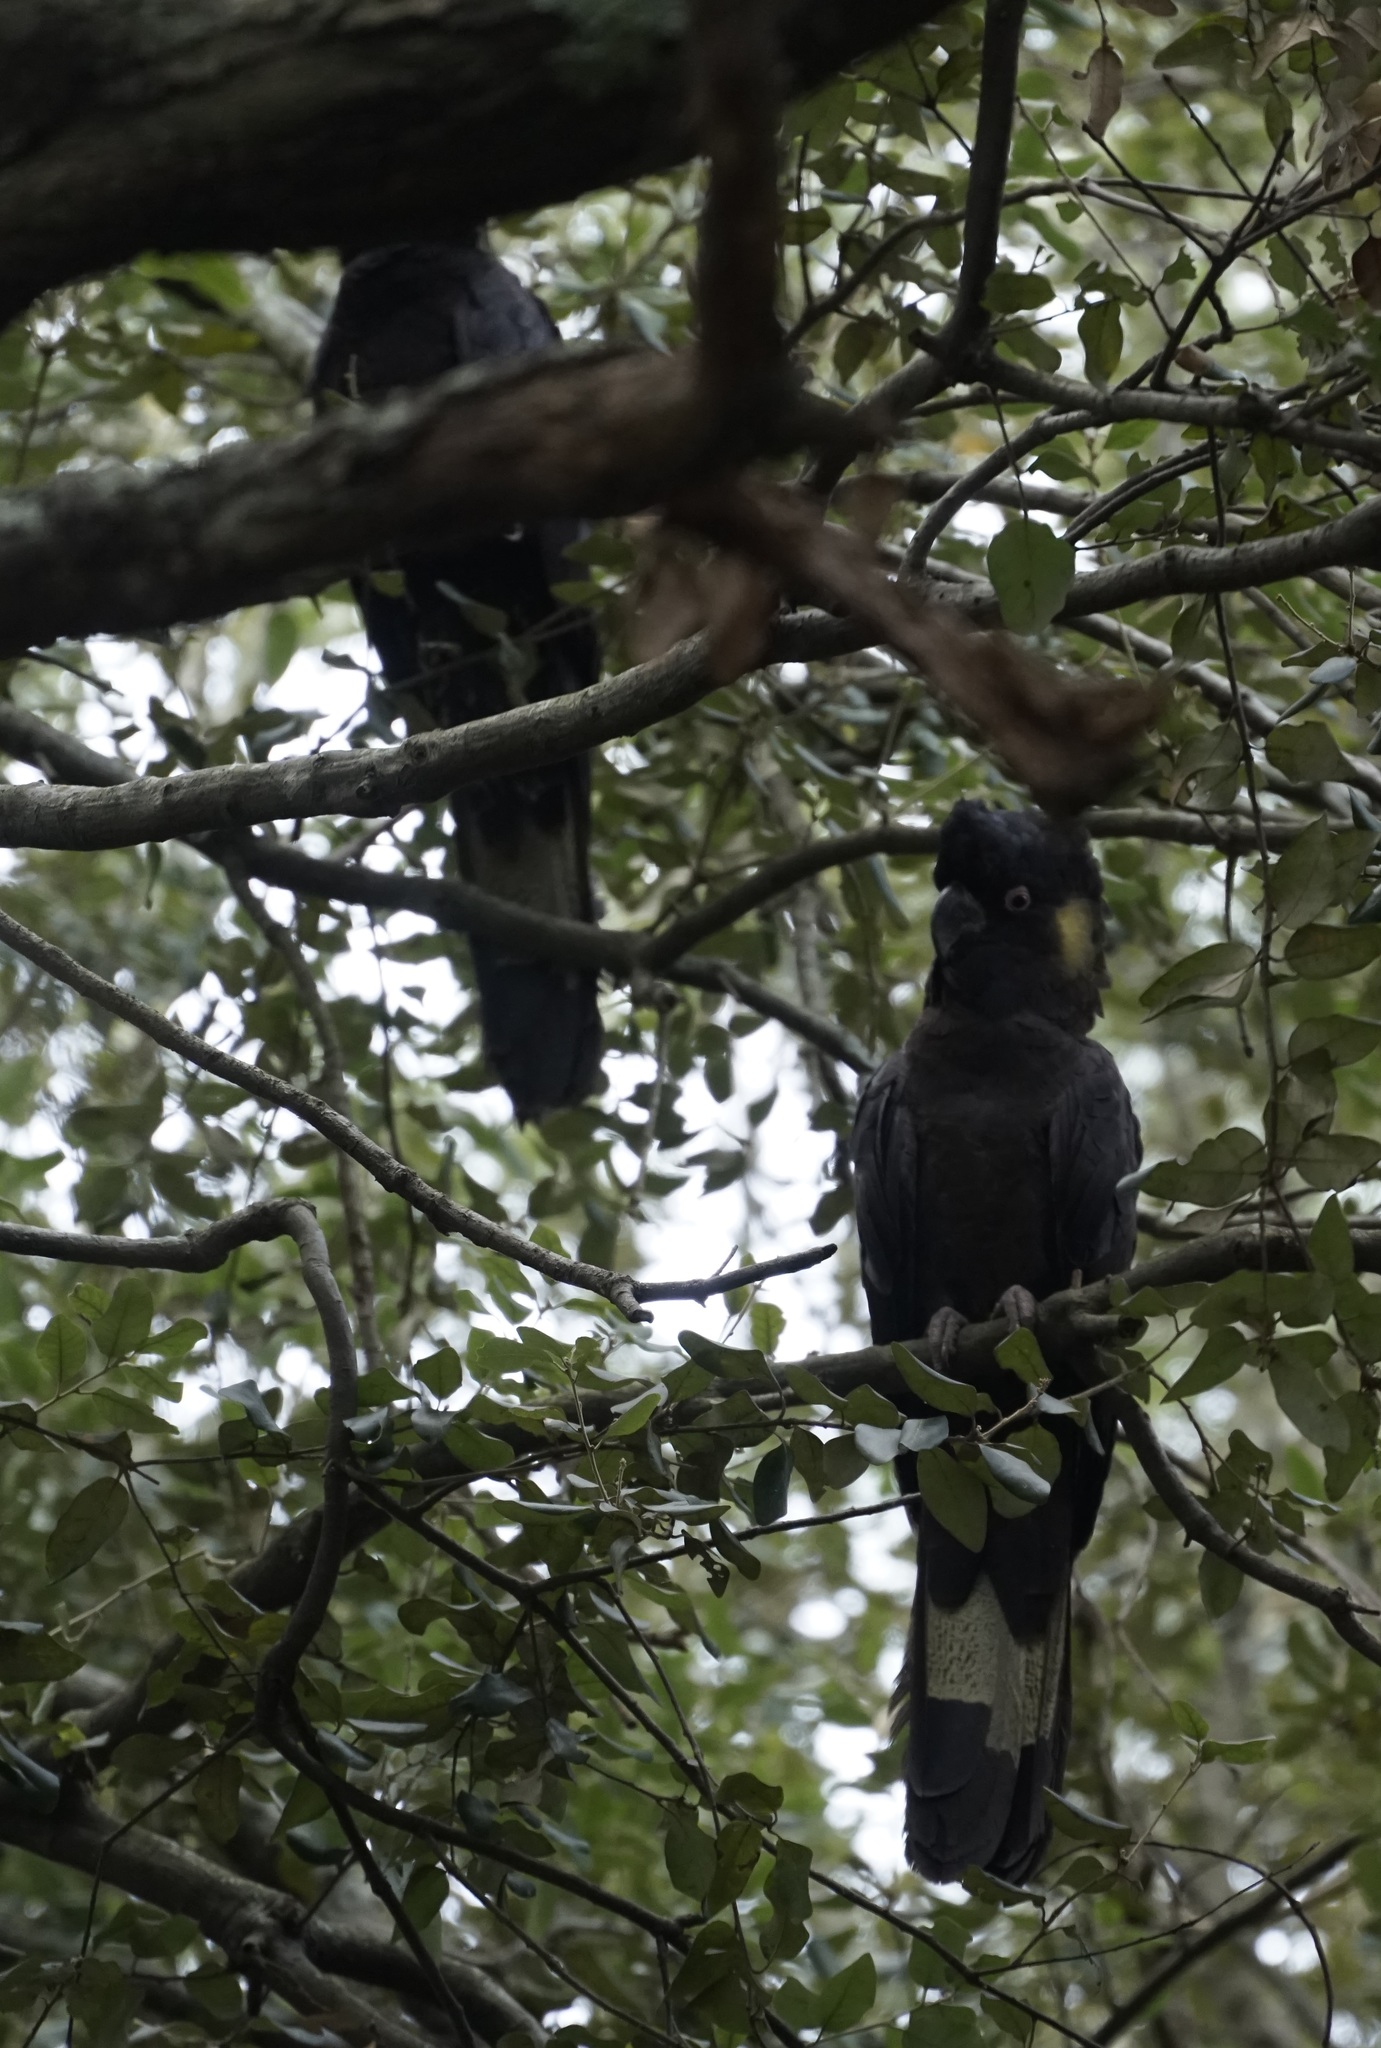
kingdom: Animalia
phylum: Chordata
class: Aves
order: Psittaciformes
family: Cacatuidae
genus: Zanda
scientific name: Zanda funerea
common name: Yellow-tailed black-cockatoo
